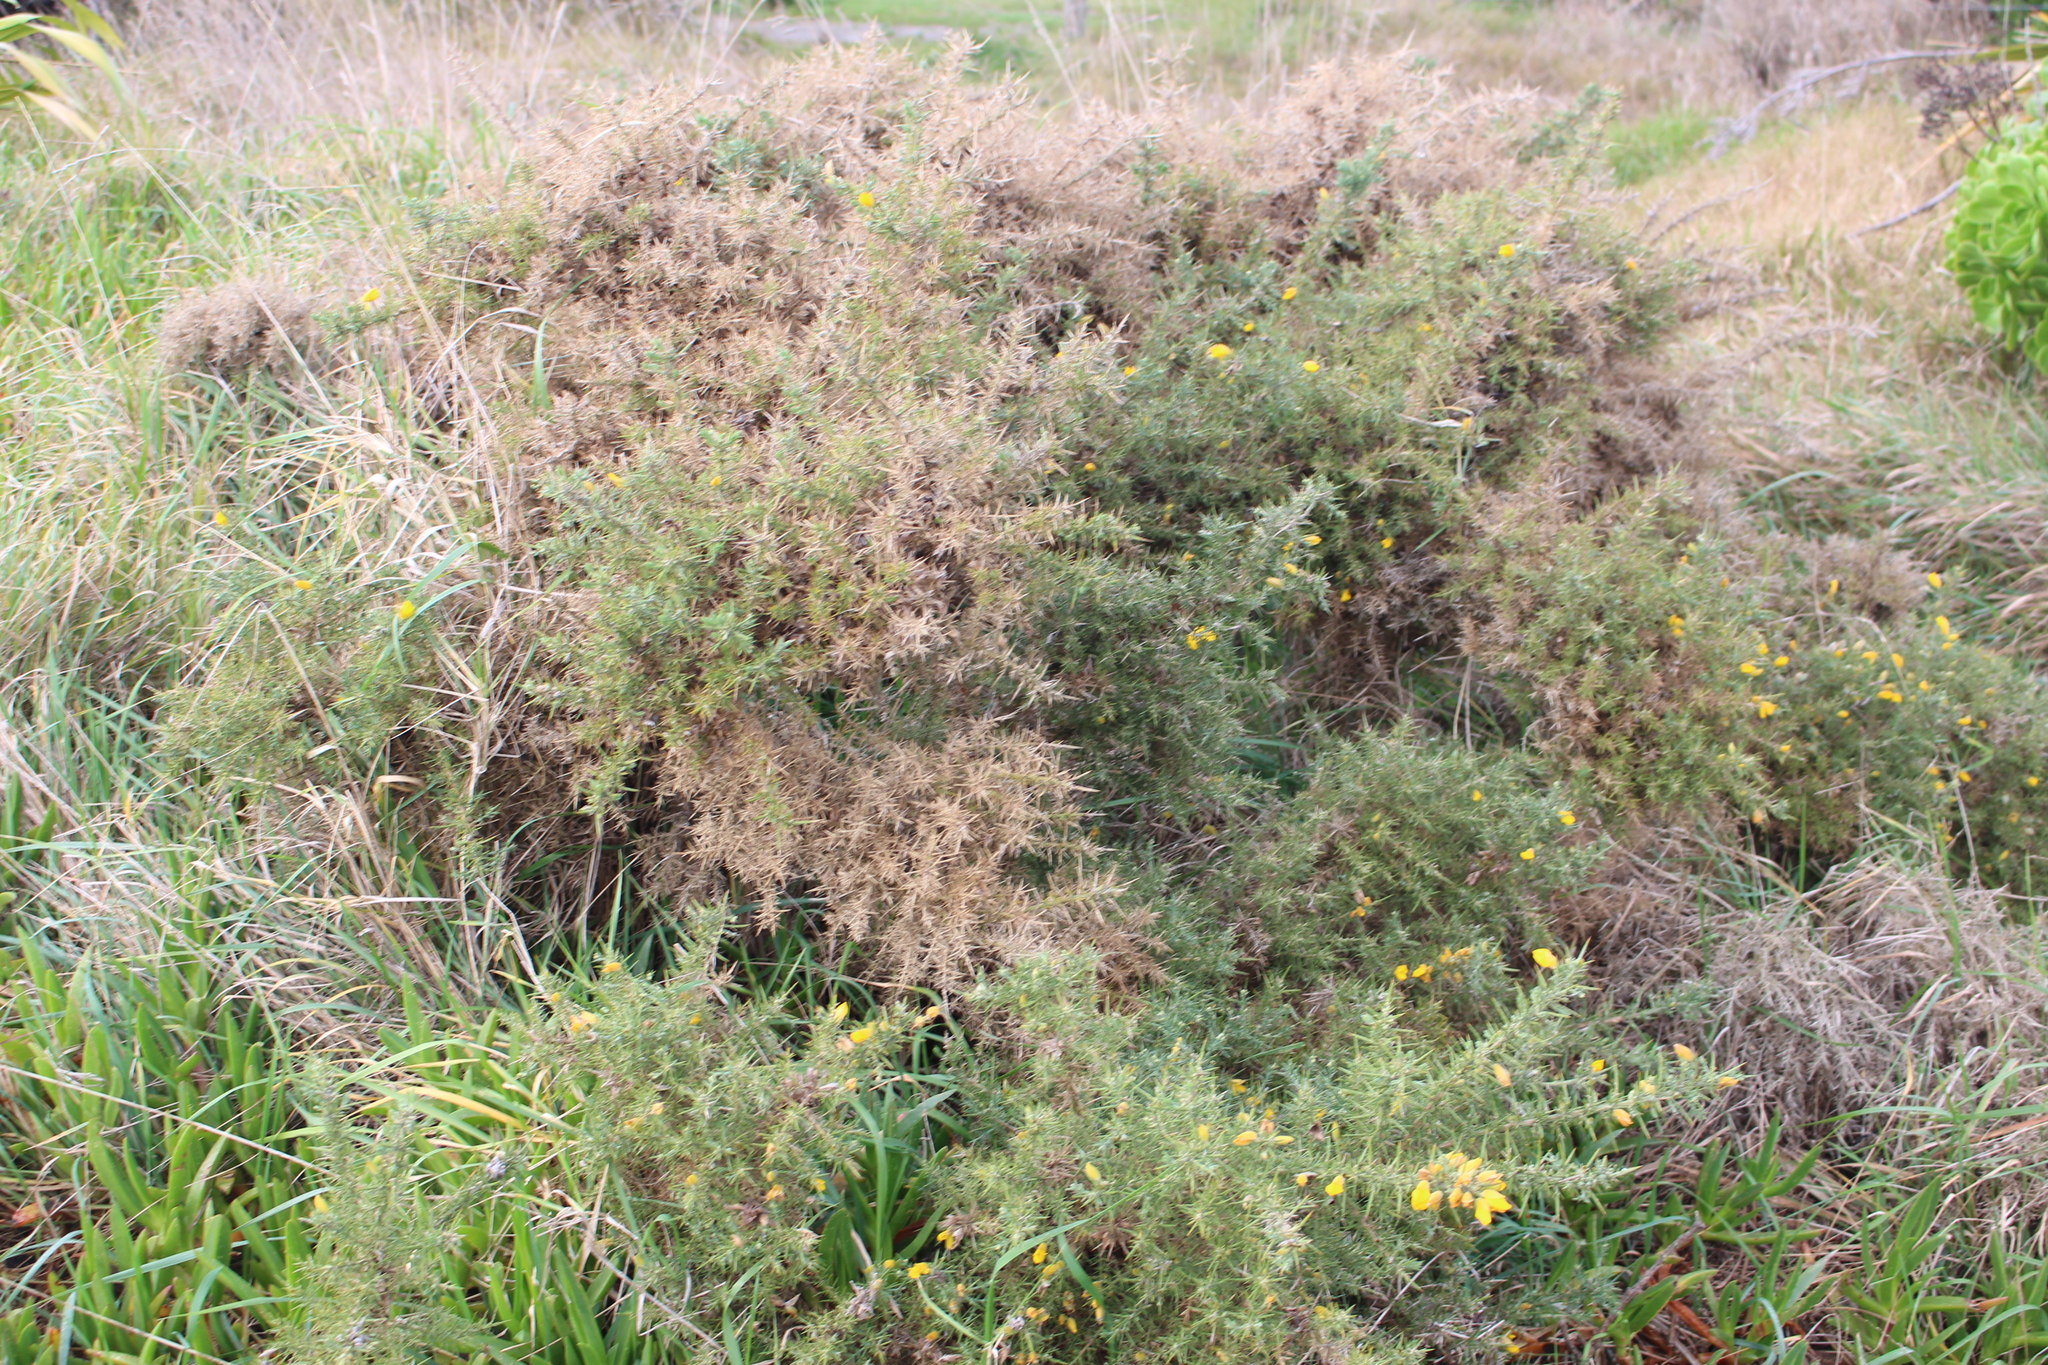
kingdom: Plantae
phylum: Tracheophyta
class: Magnoliopsida
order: Fabales
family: Fabaceae
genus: Ulex
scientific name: Ulex europaeus
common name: Common gorse
